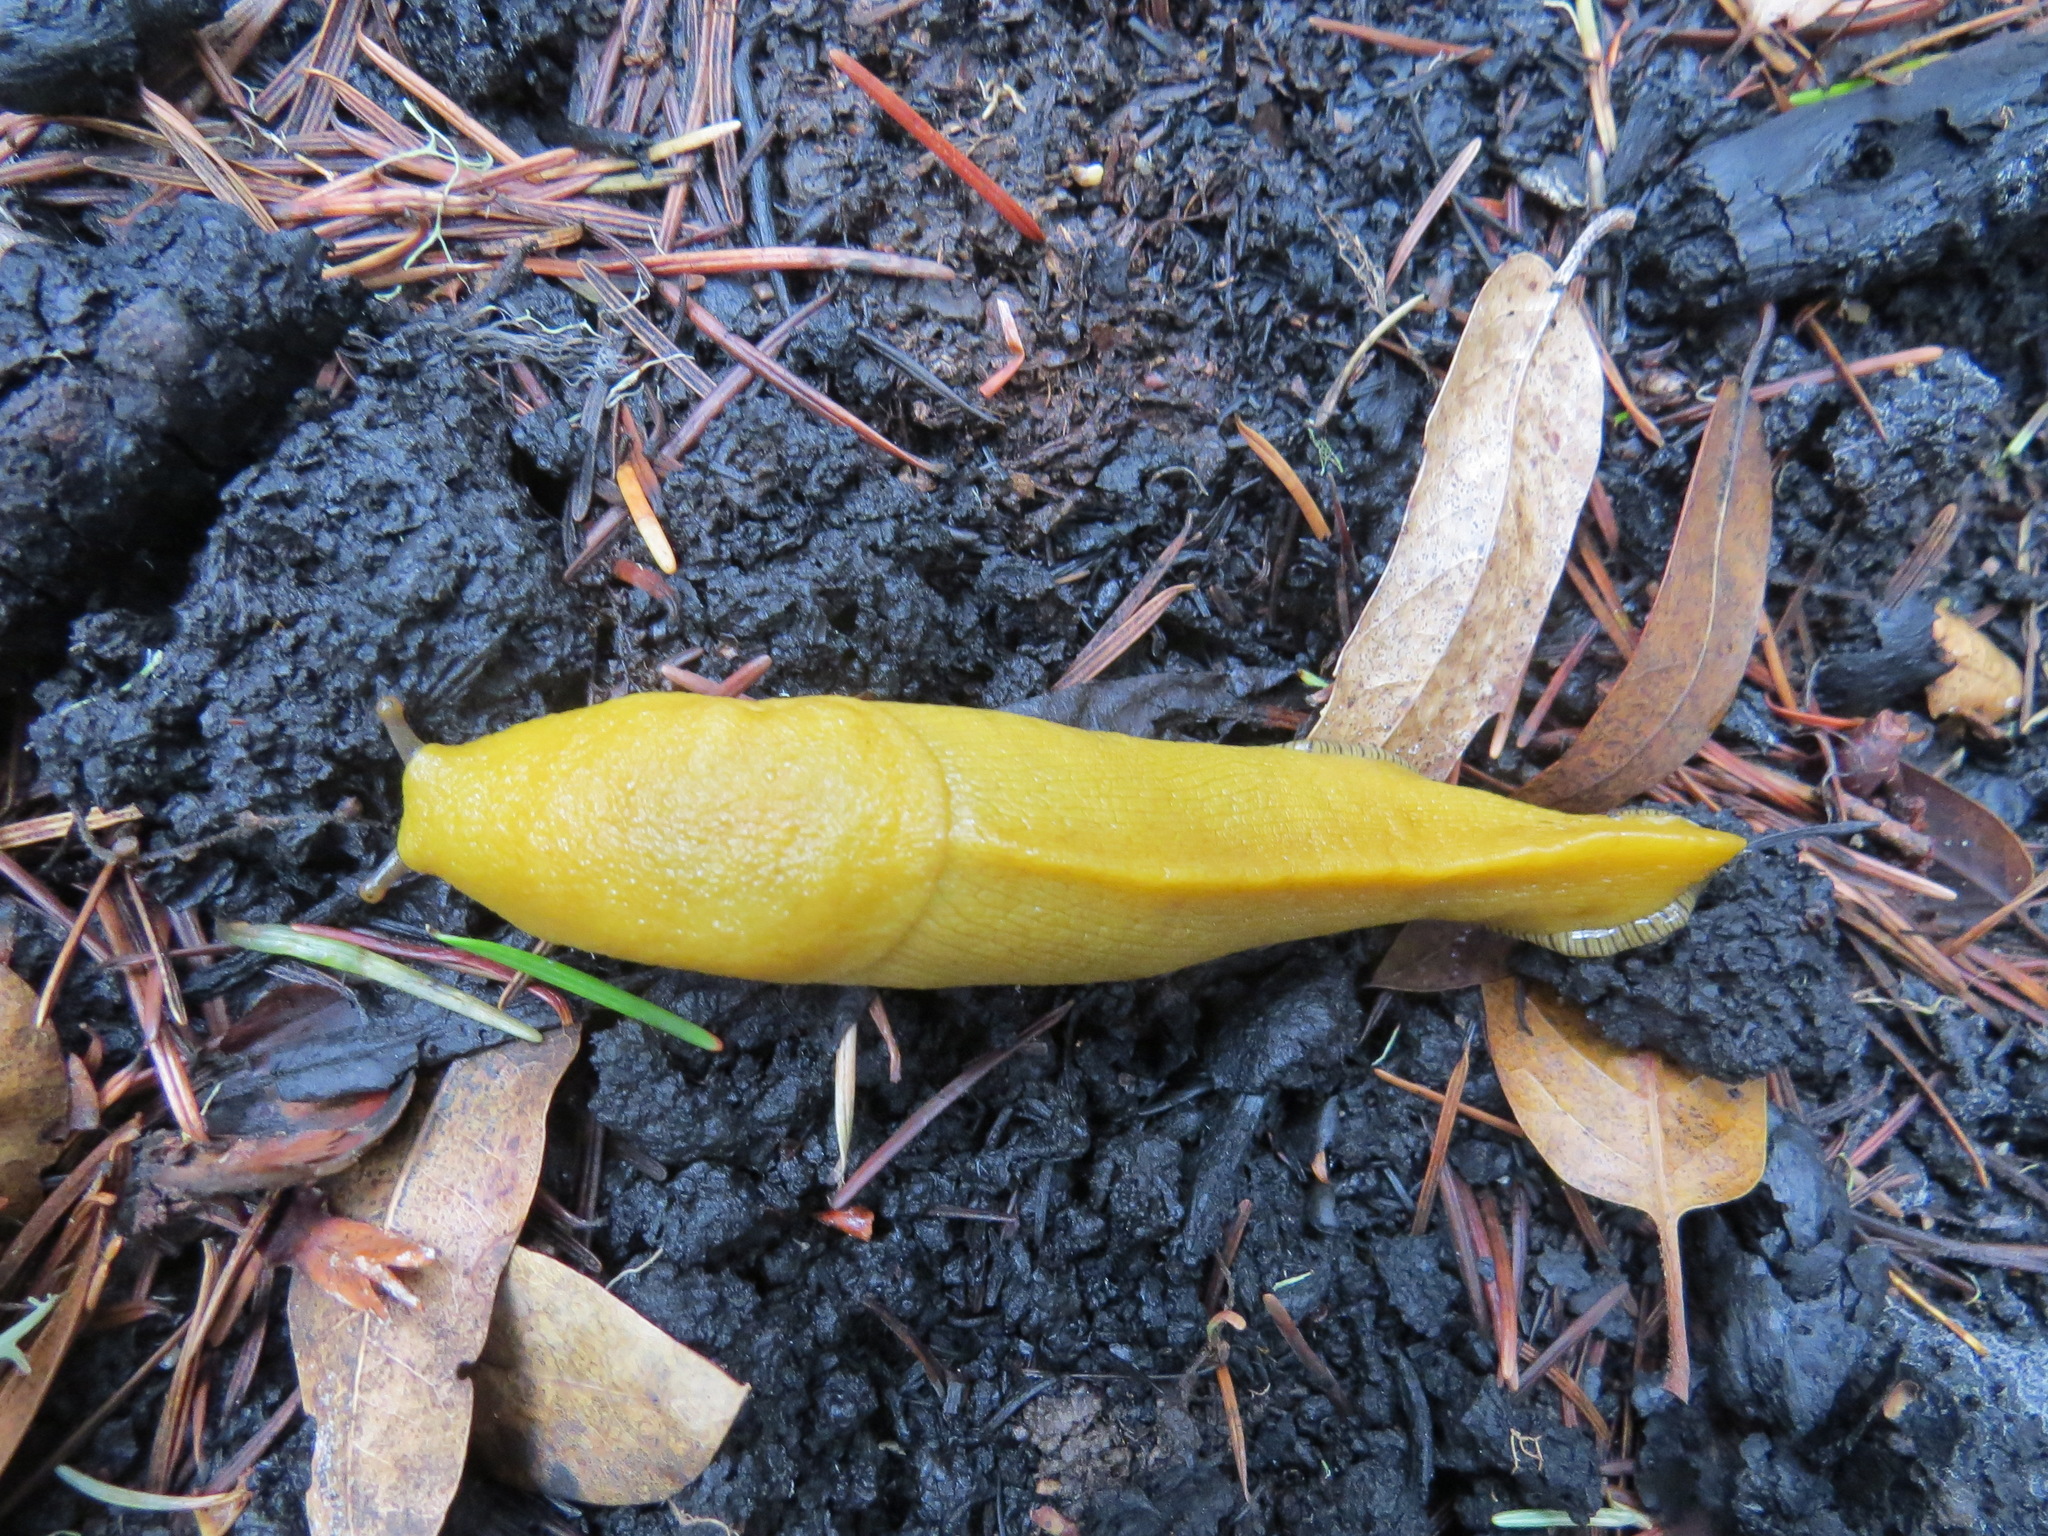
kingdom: Animalia
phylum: Mollusca
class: Gastropoda
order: Stylommatophora
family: Ariolimacidae
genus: Ariolimax
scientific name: Ariolimax californicus
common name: California banana slug
